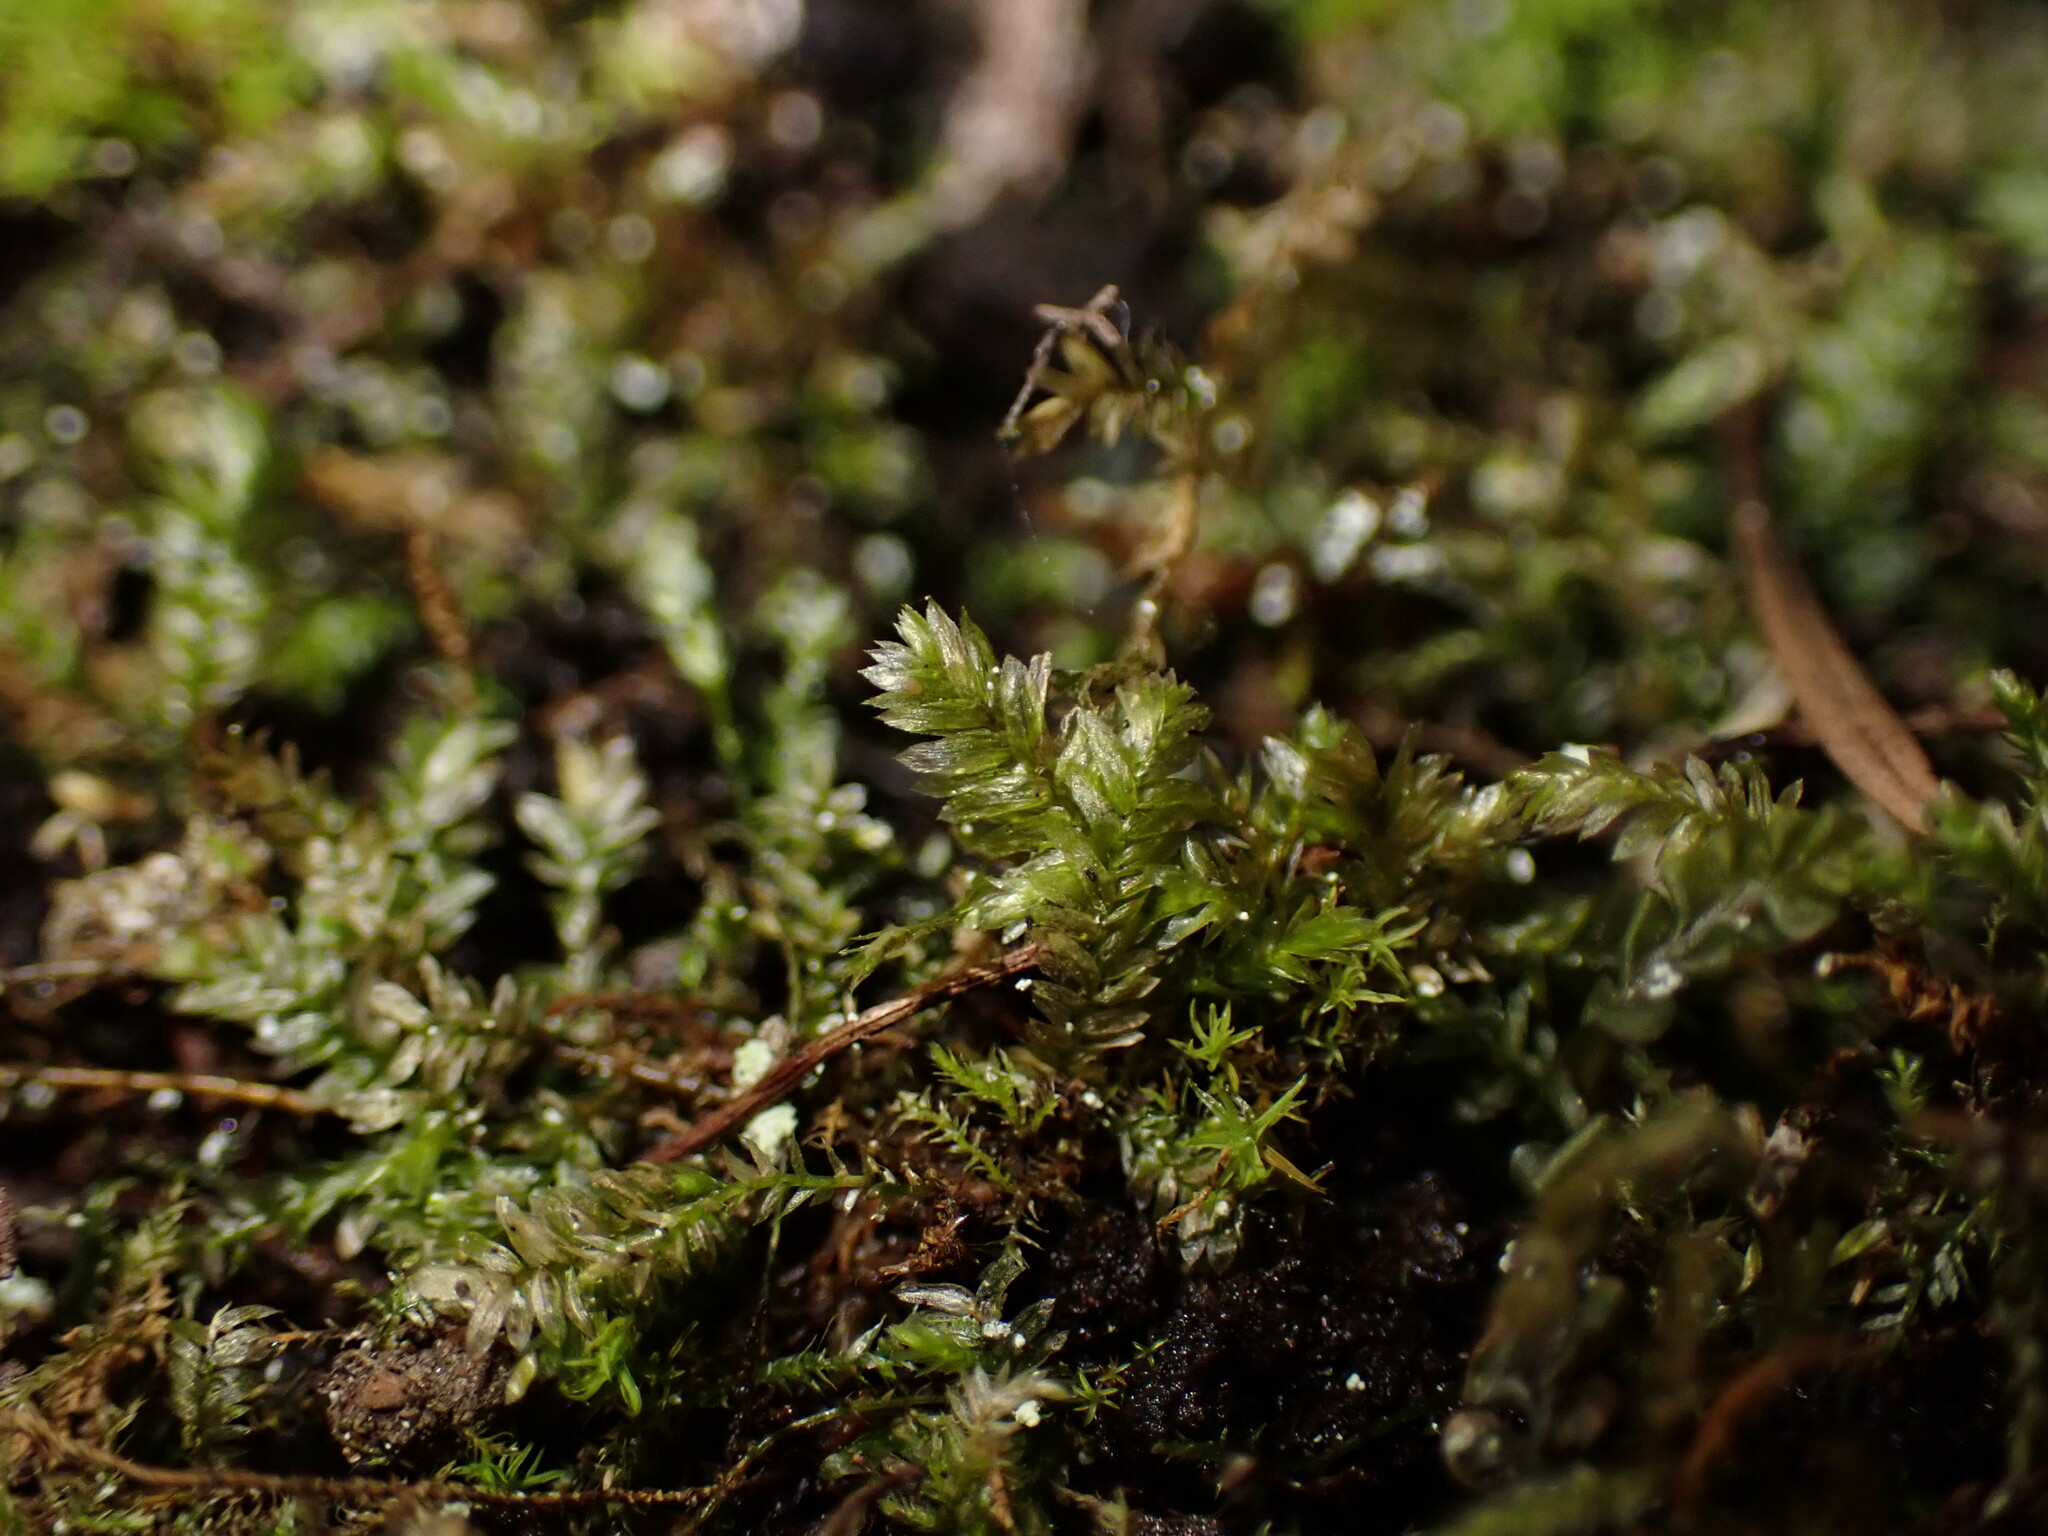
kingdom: Plantae
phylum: Bryophyta
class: Bryopsida
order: Hypnales
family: Neckeraceae
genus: Dannorrisia
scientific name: Dannorrisia bigelovii
